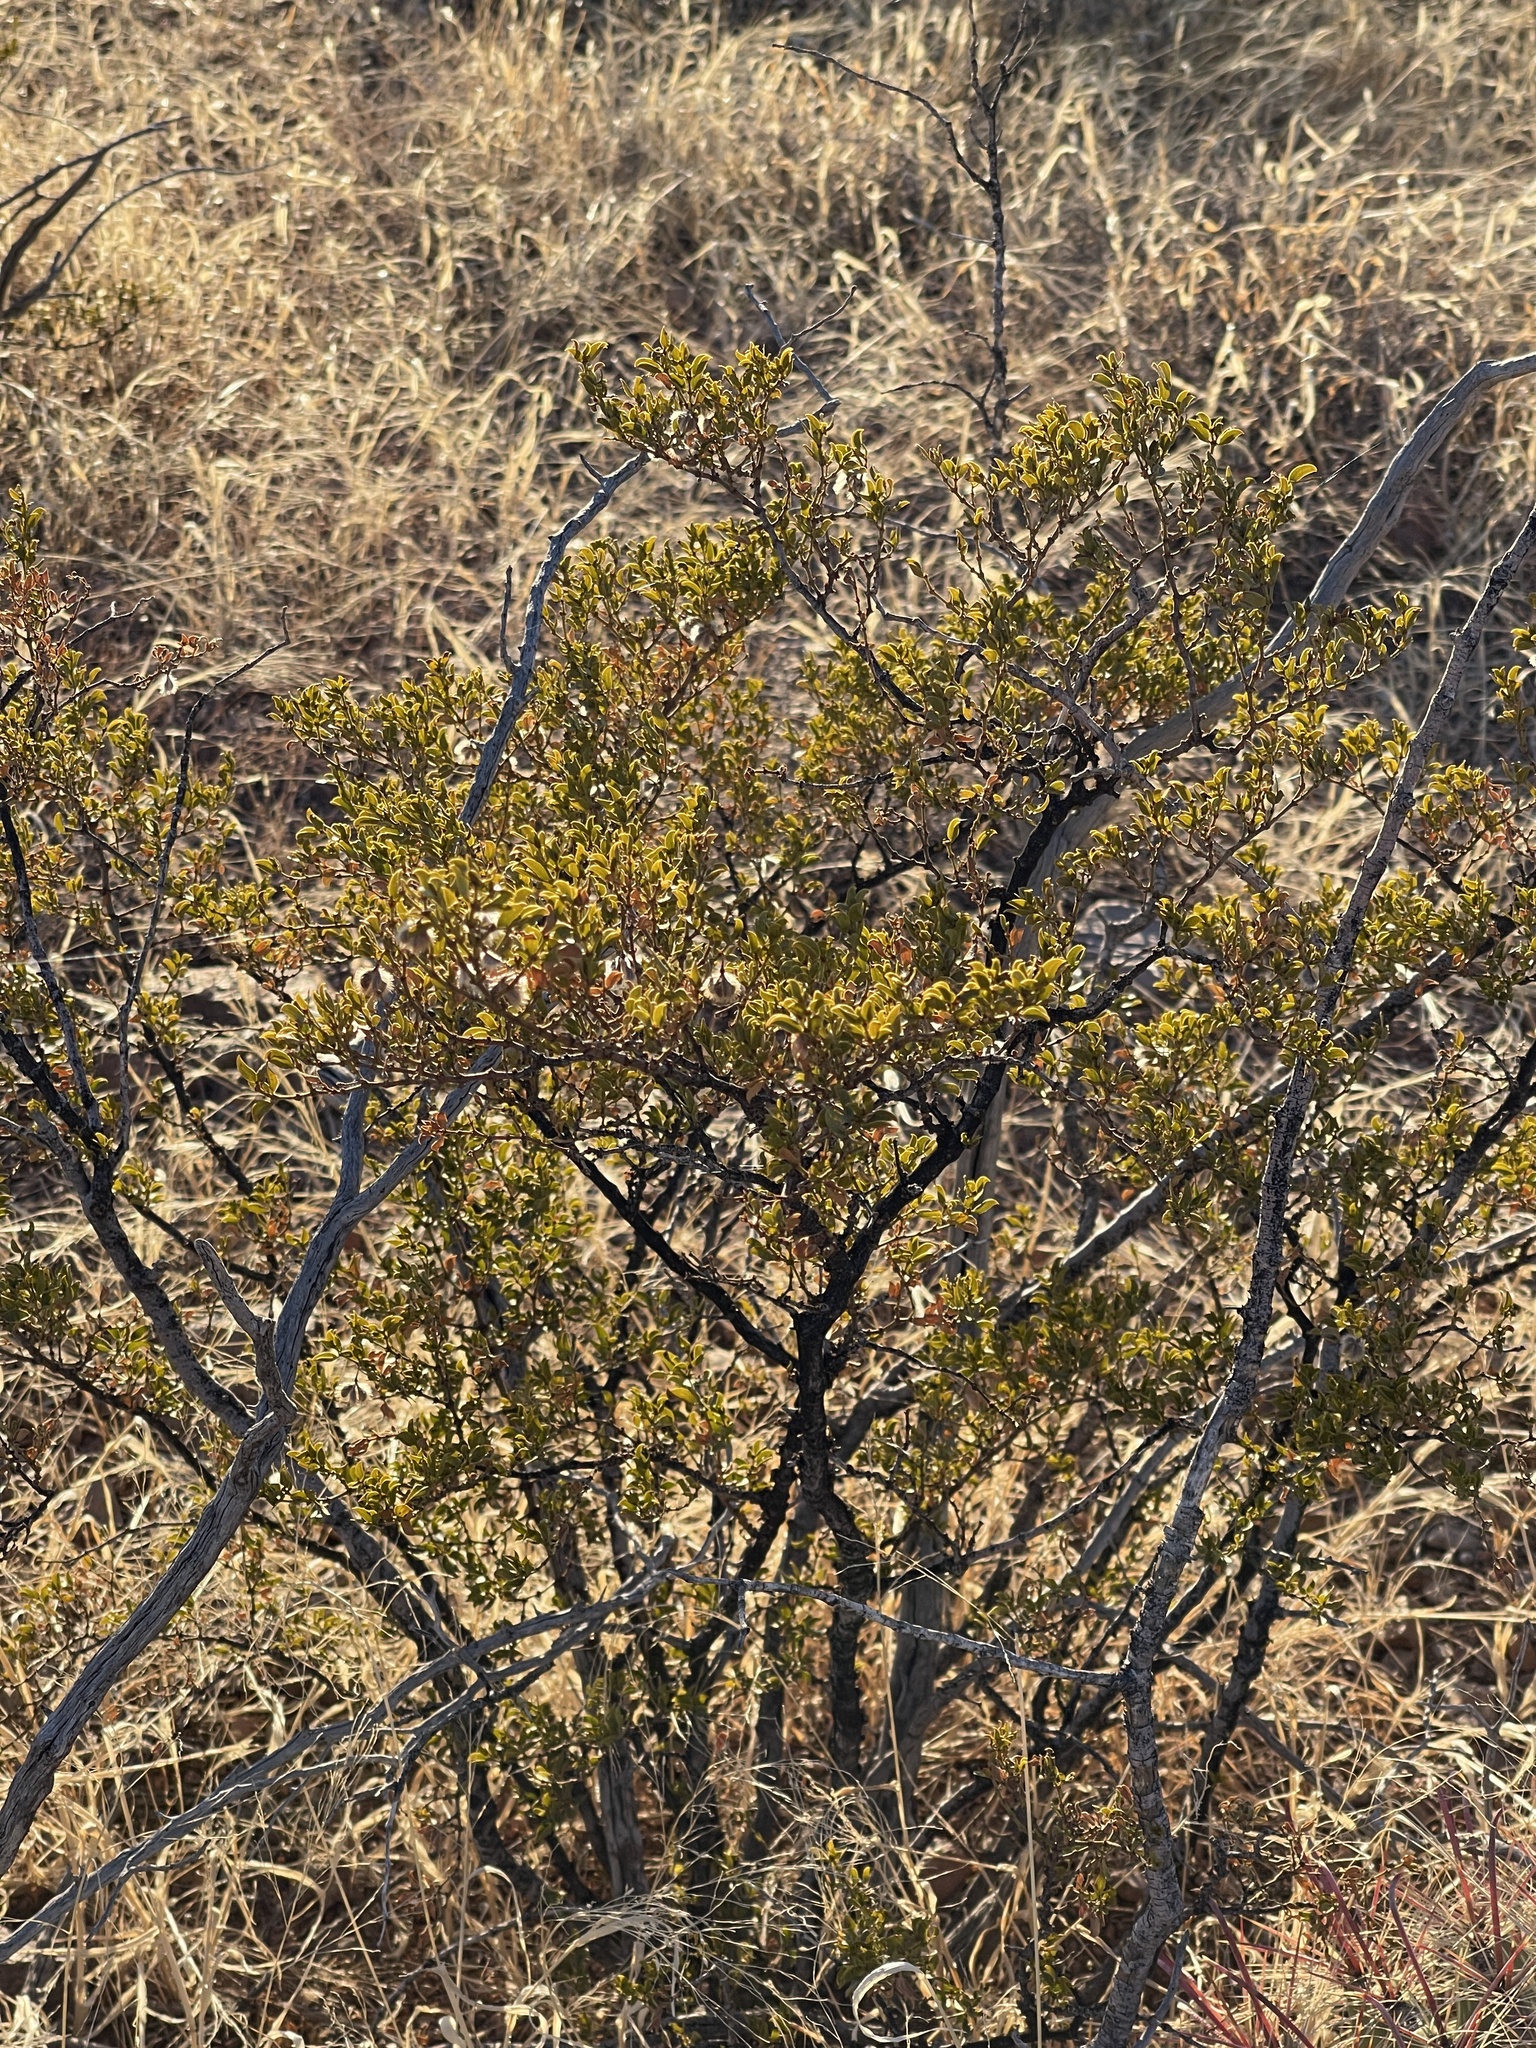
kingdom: Plantae
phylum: Tracheophyta
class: Magnoliopsida
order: Zygophyllales
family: Zygophyllaceae
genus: Larrea
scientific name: Larrea tridentata
